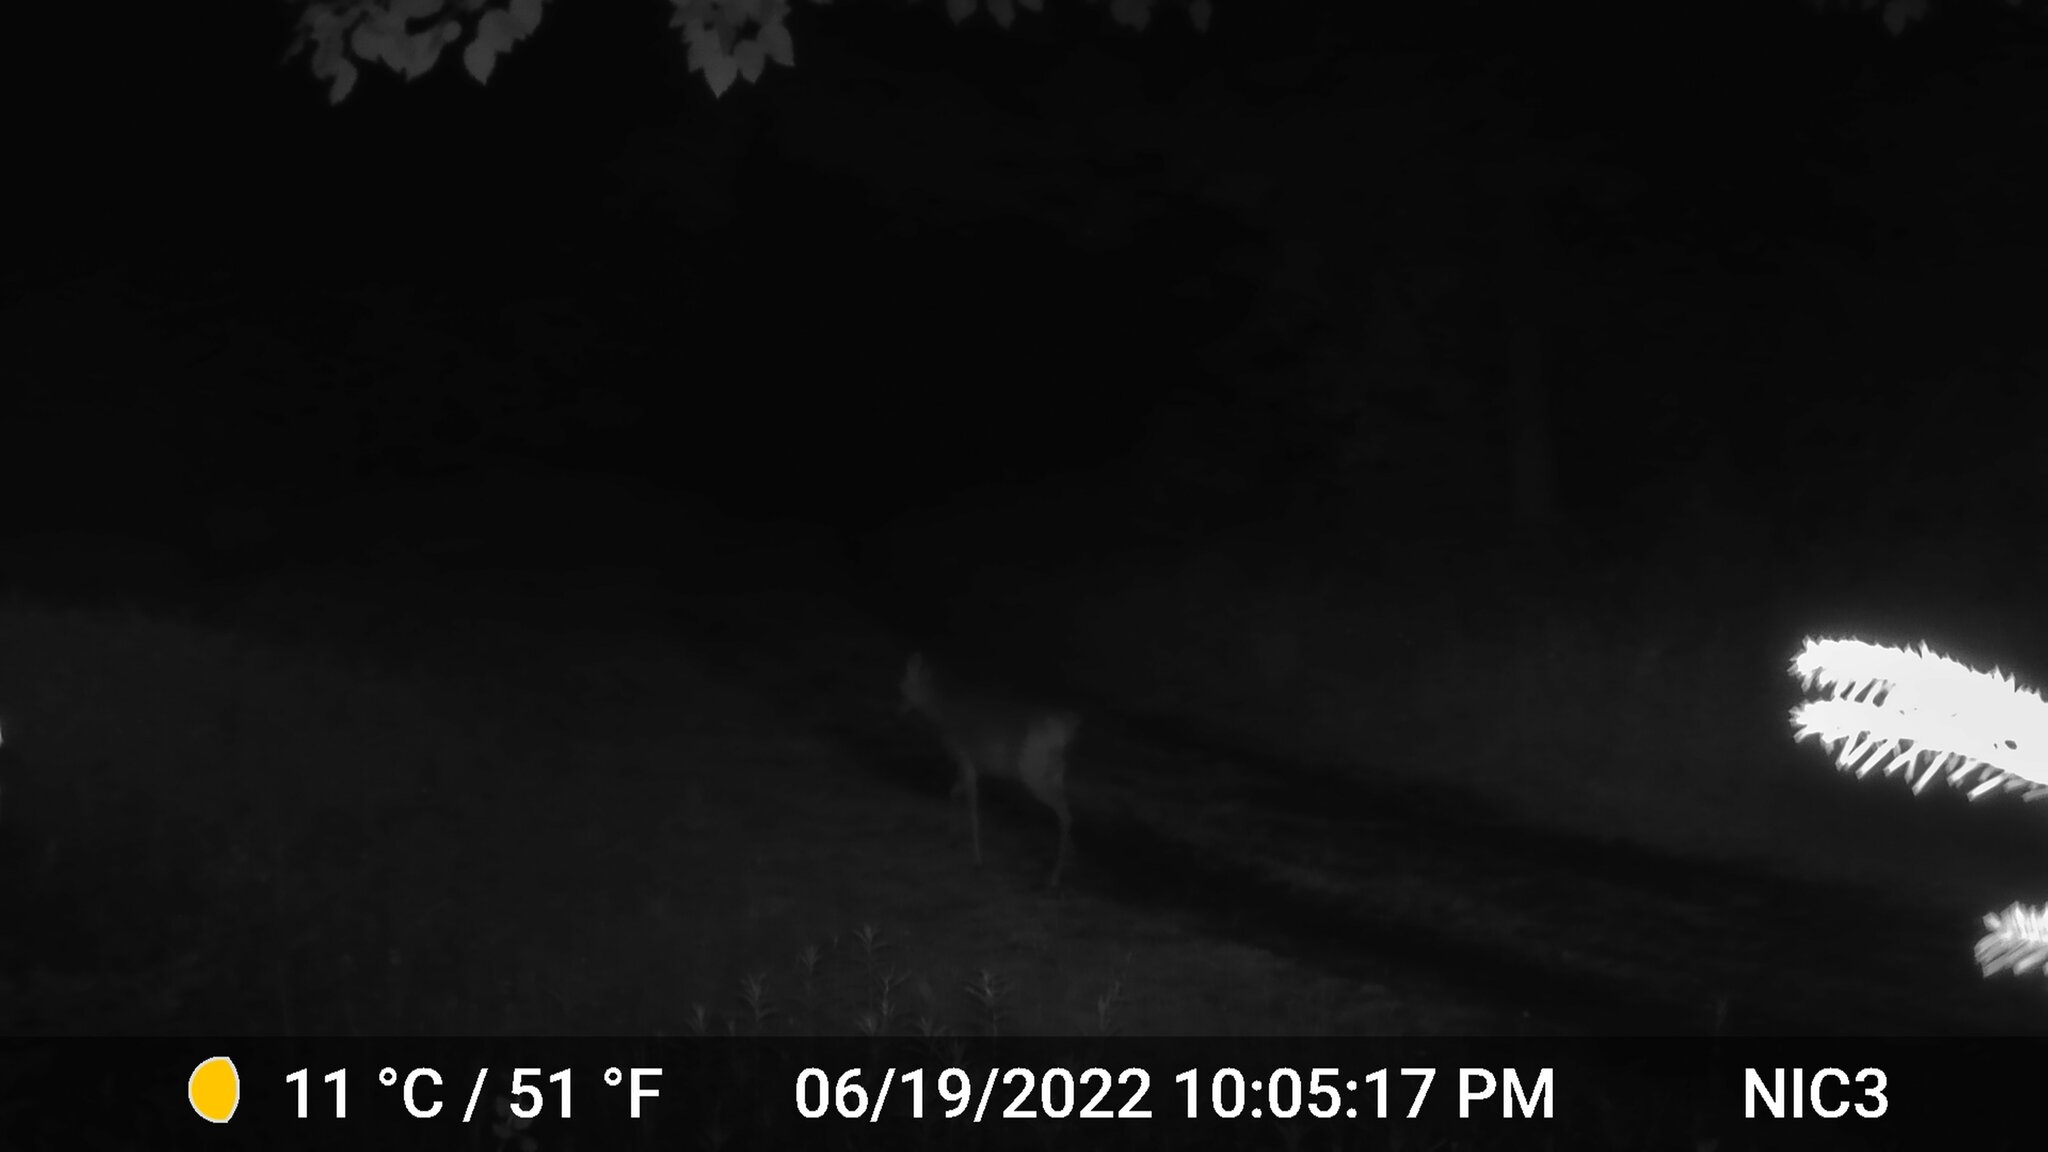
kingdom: Animalia
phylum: Chordata
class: Mammalia
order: Artiodactyla
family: Cervidae
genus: Odocoileus
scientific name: Odocoileus virginianus
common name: White-tailed deer
